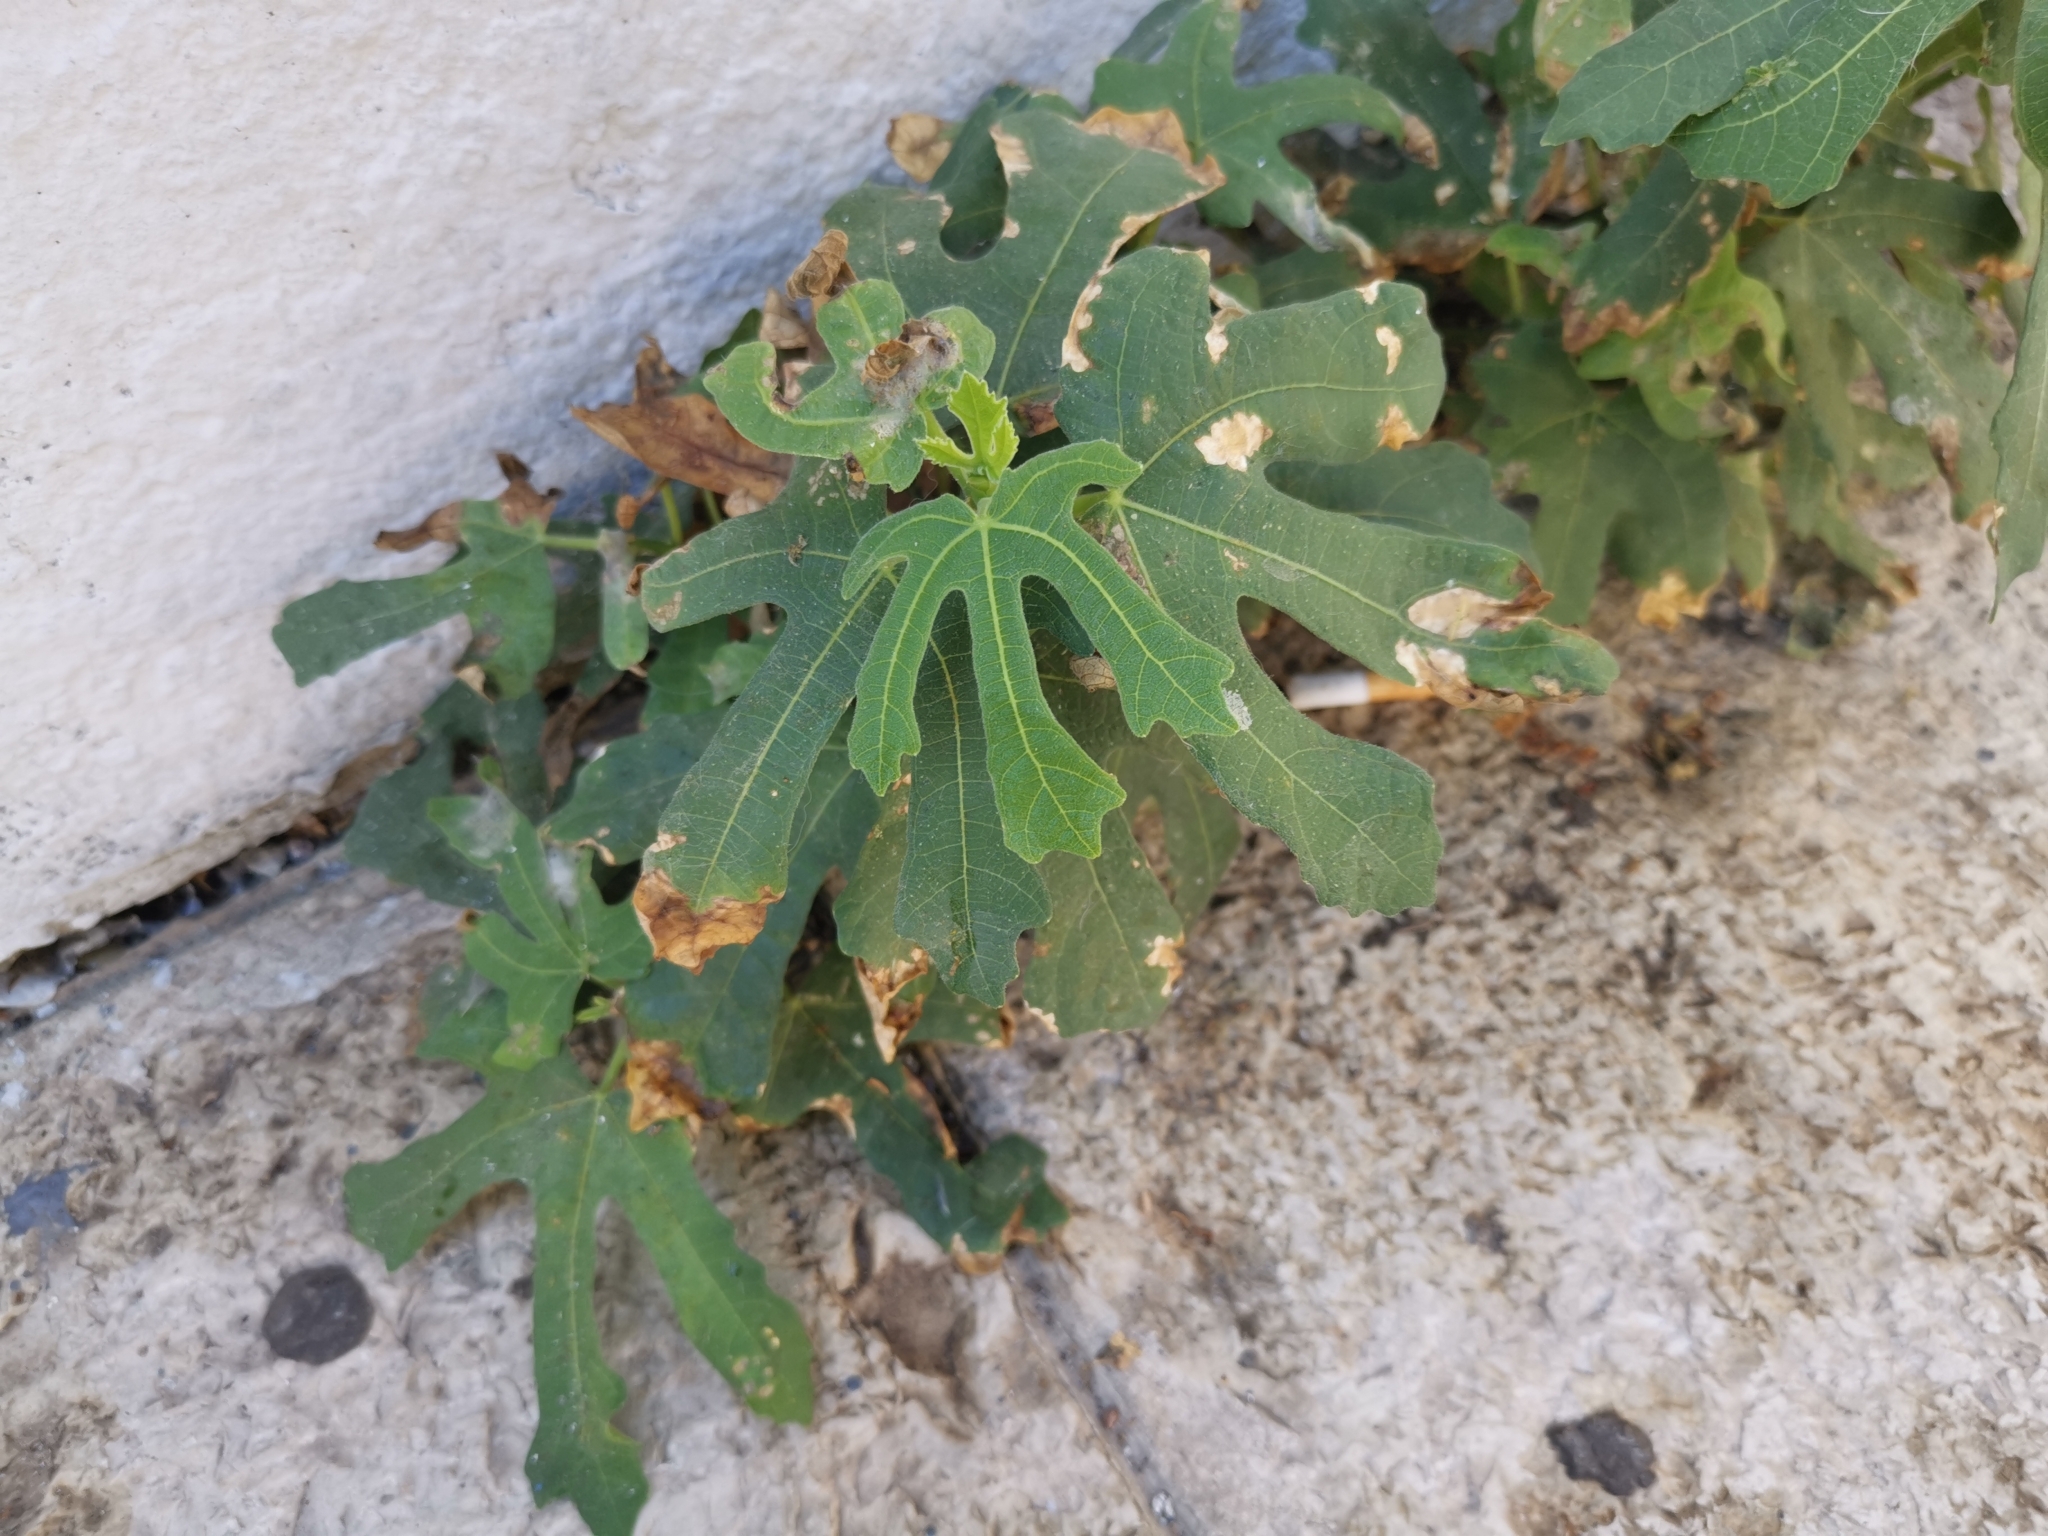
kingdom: Plantae
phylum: Tracheophyta
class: Magnoliopsida
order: Rosales
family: Moraceae
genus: Ficus
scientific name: Ficus carica
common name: Fig
